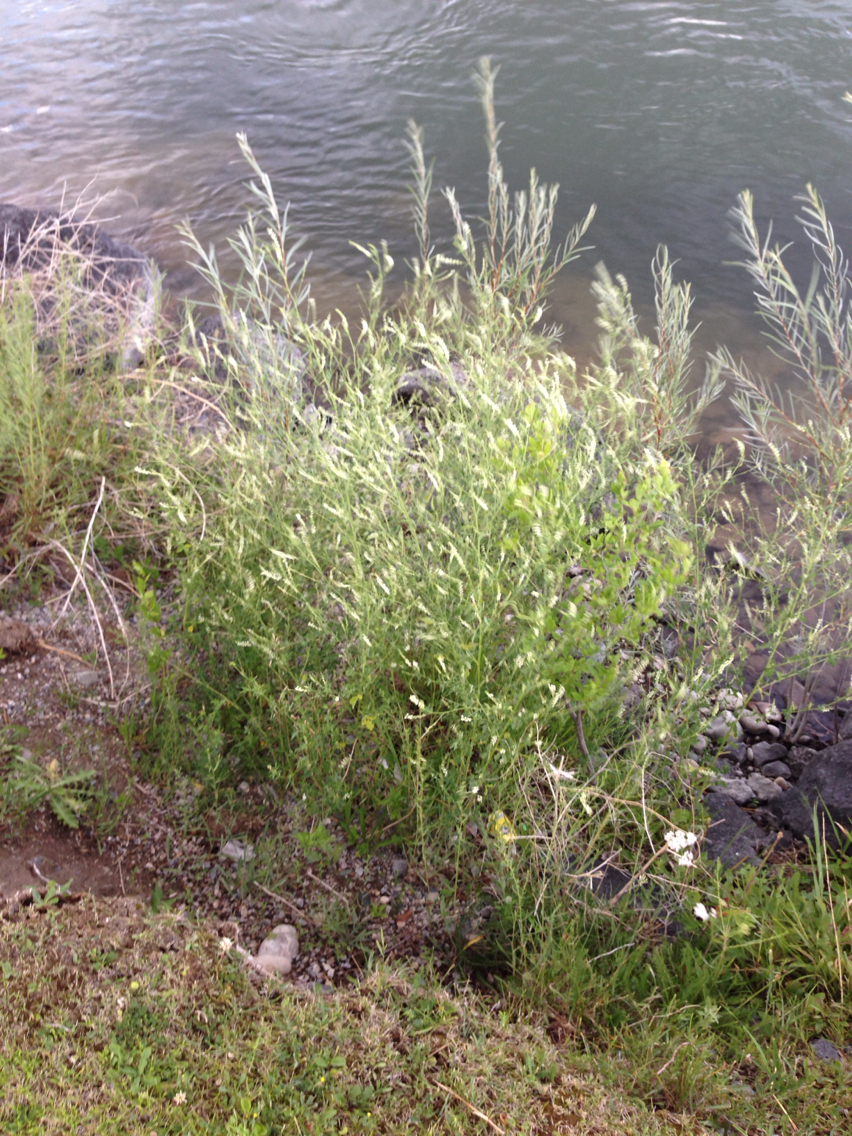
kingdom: Plantae
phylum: Tracheophyta
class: Magnoliopsida
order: Fabales
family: Fabaceae
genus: Melilotus
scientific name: Melilotus albus
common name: White melilot
